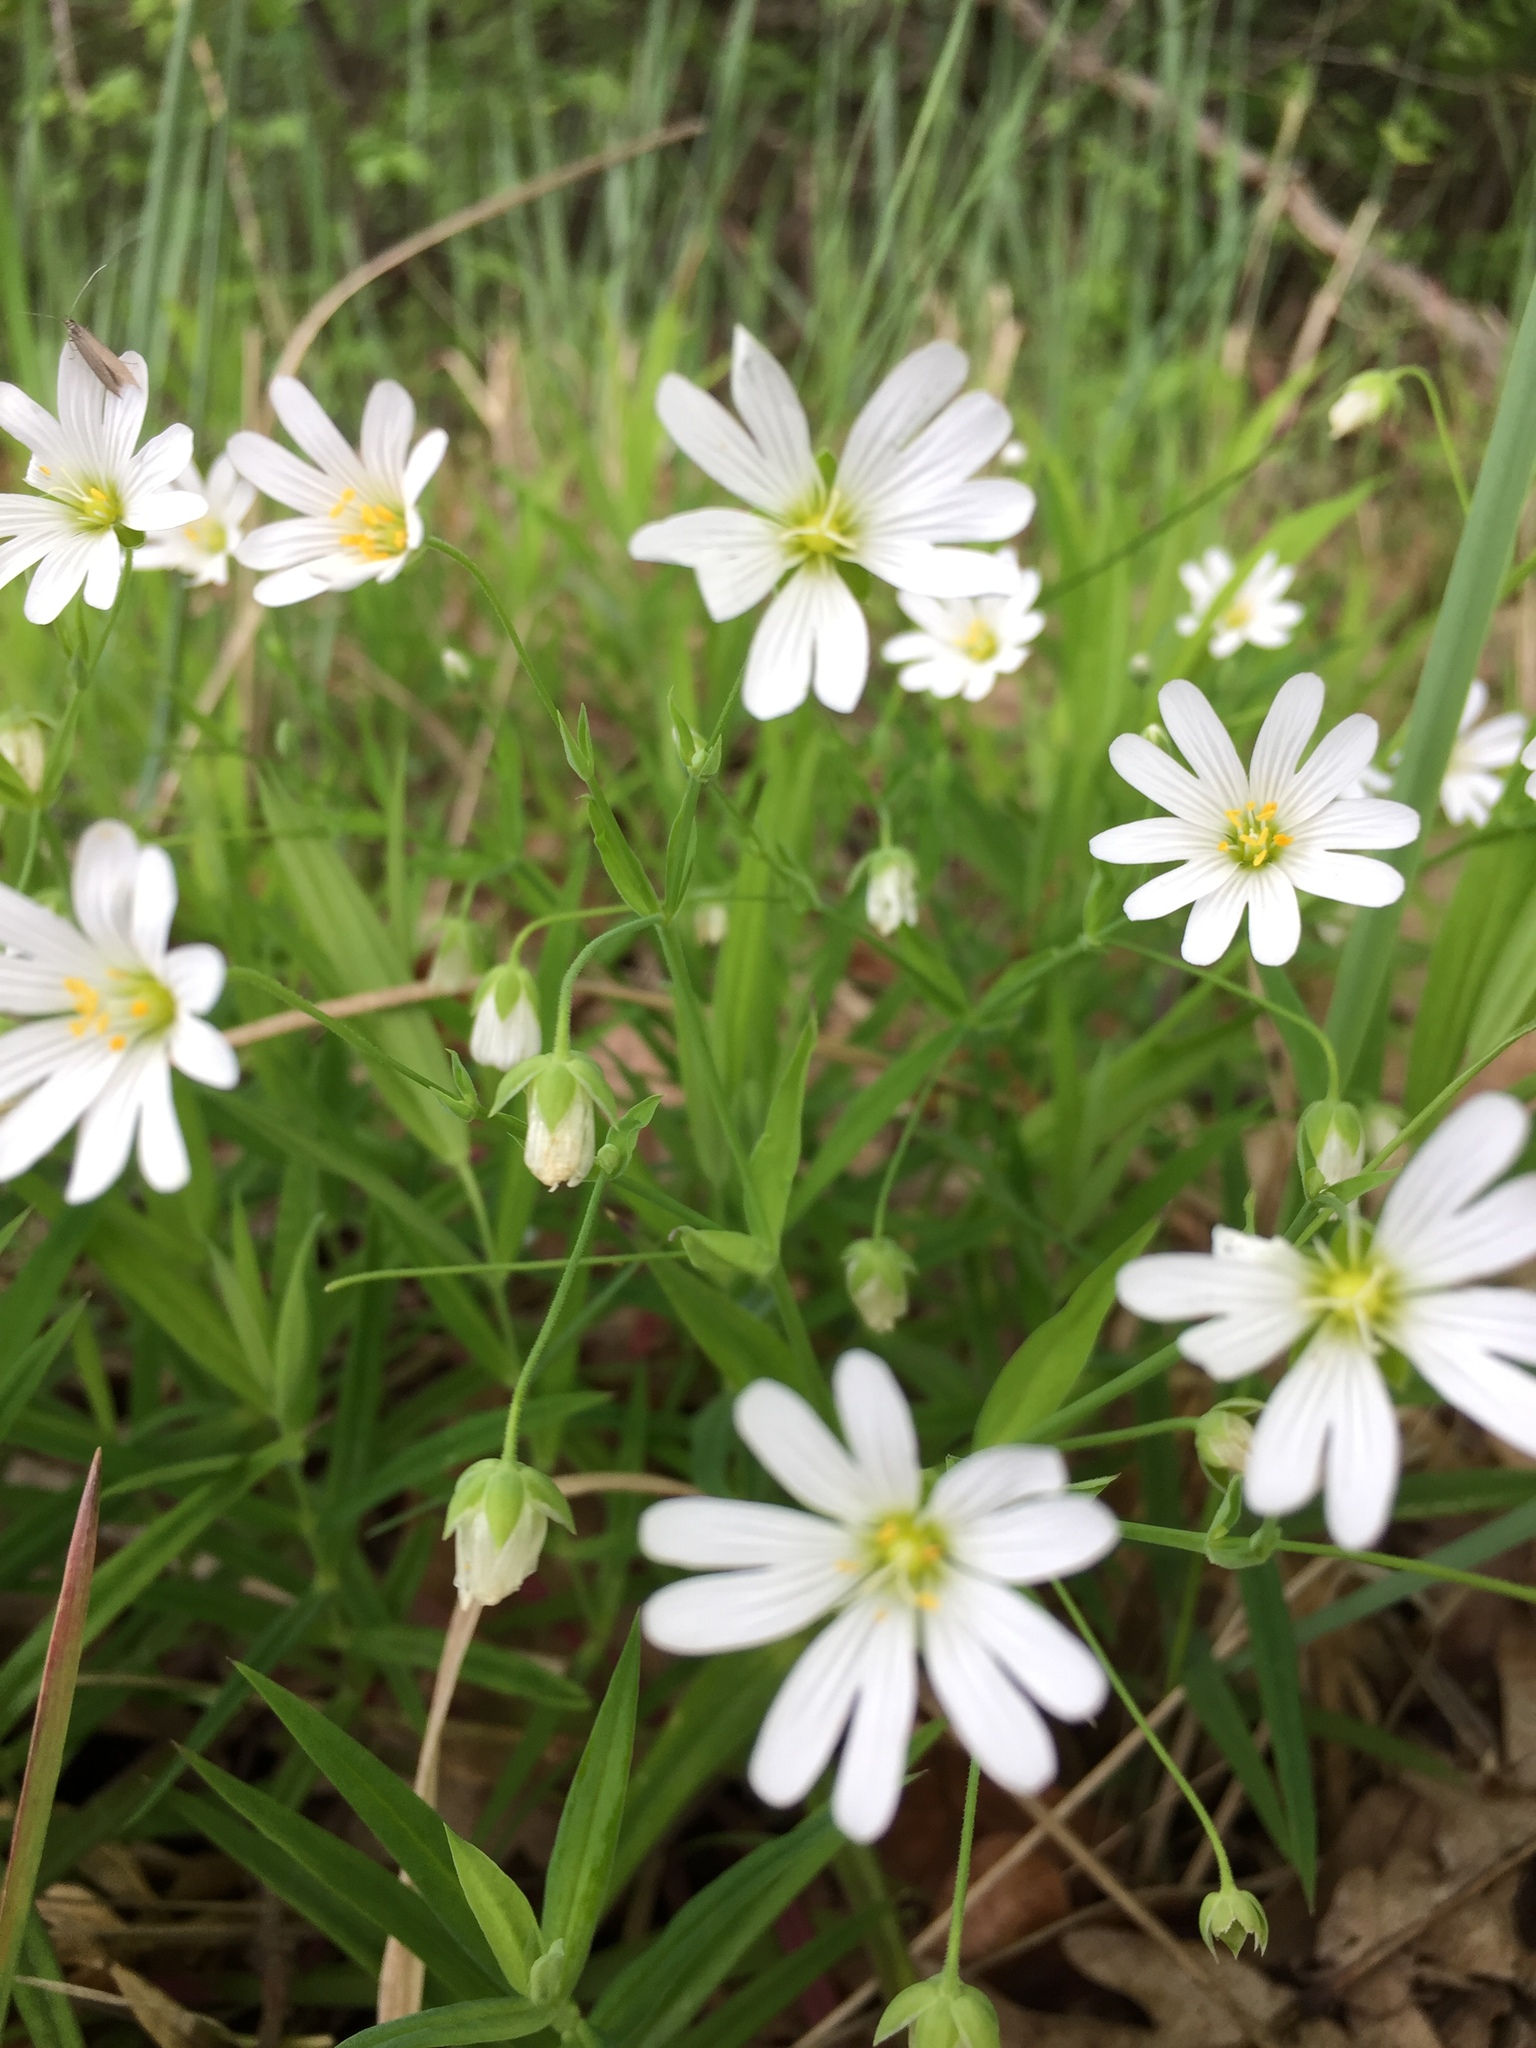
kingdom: Plantae
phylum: Tracheophyta
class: Magnoliopsida
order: Caryophyllales
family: Caryophyllaceae
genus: Rabelera
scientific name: Rabelera holostea
